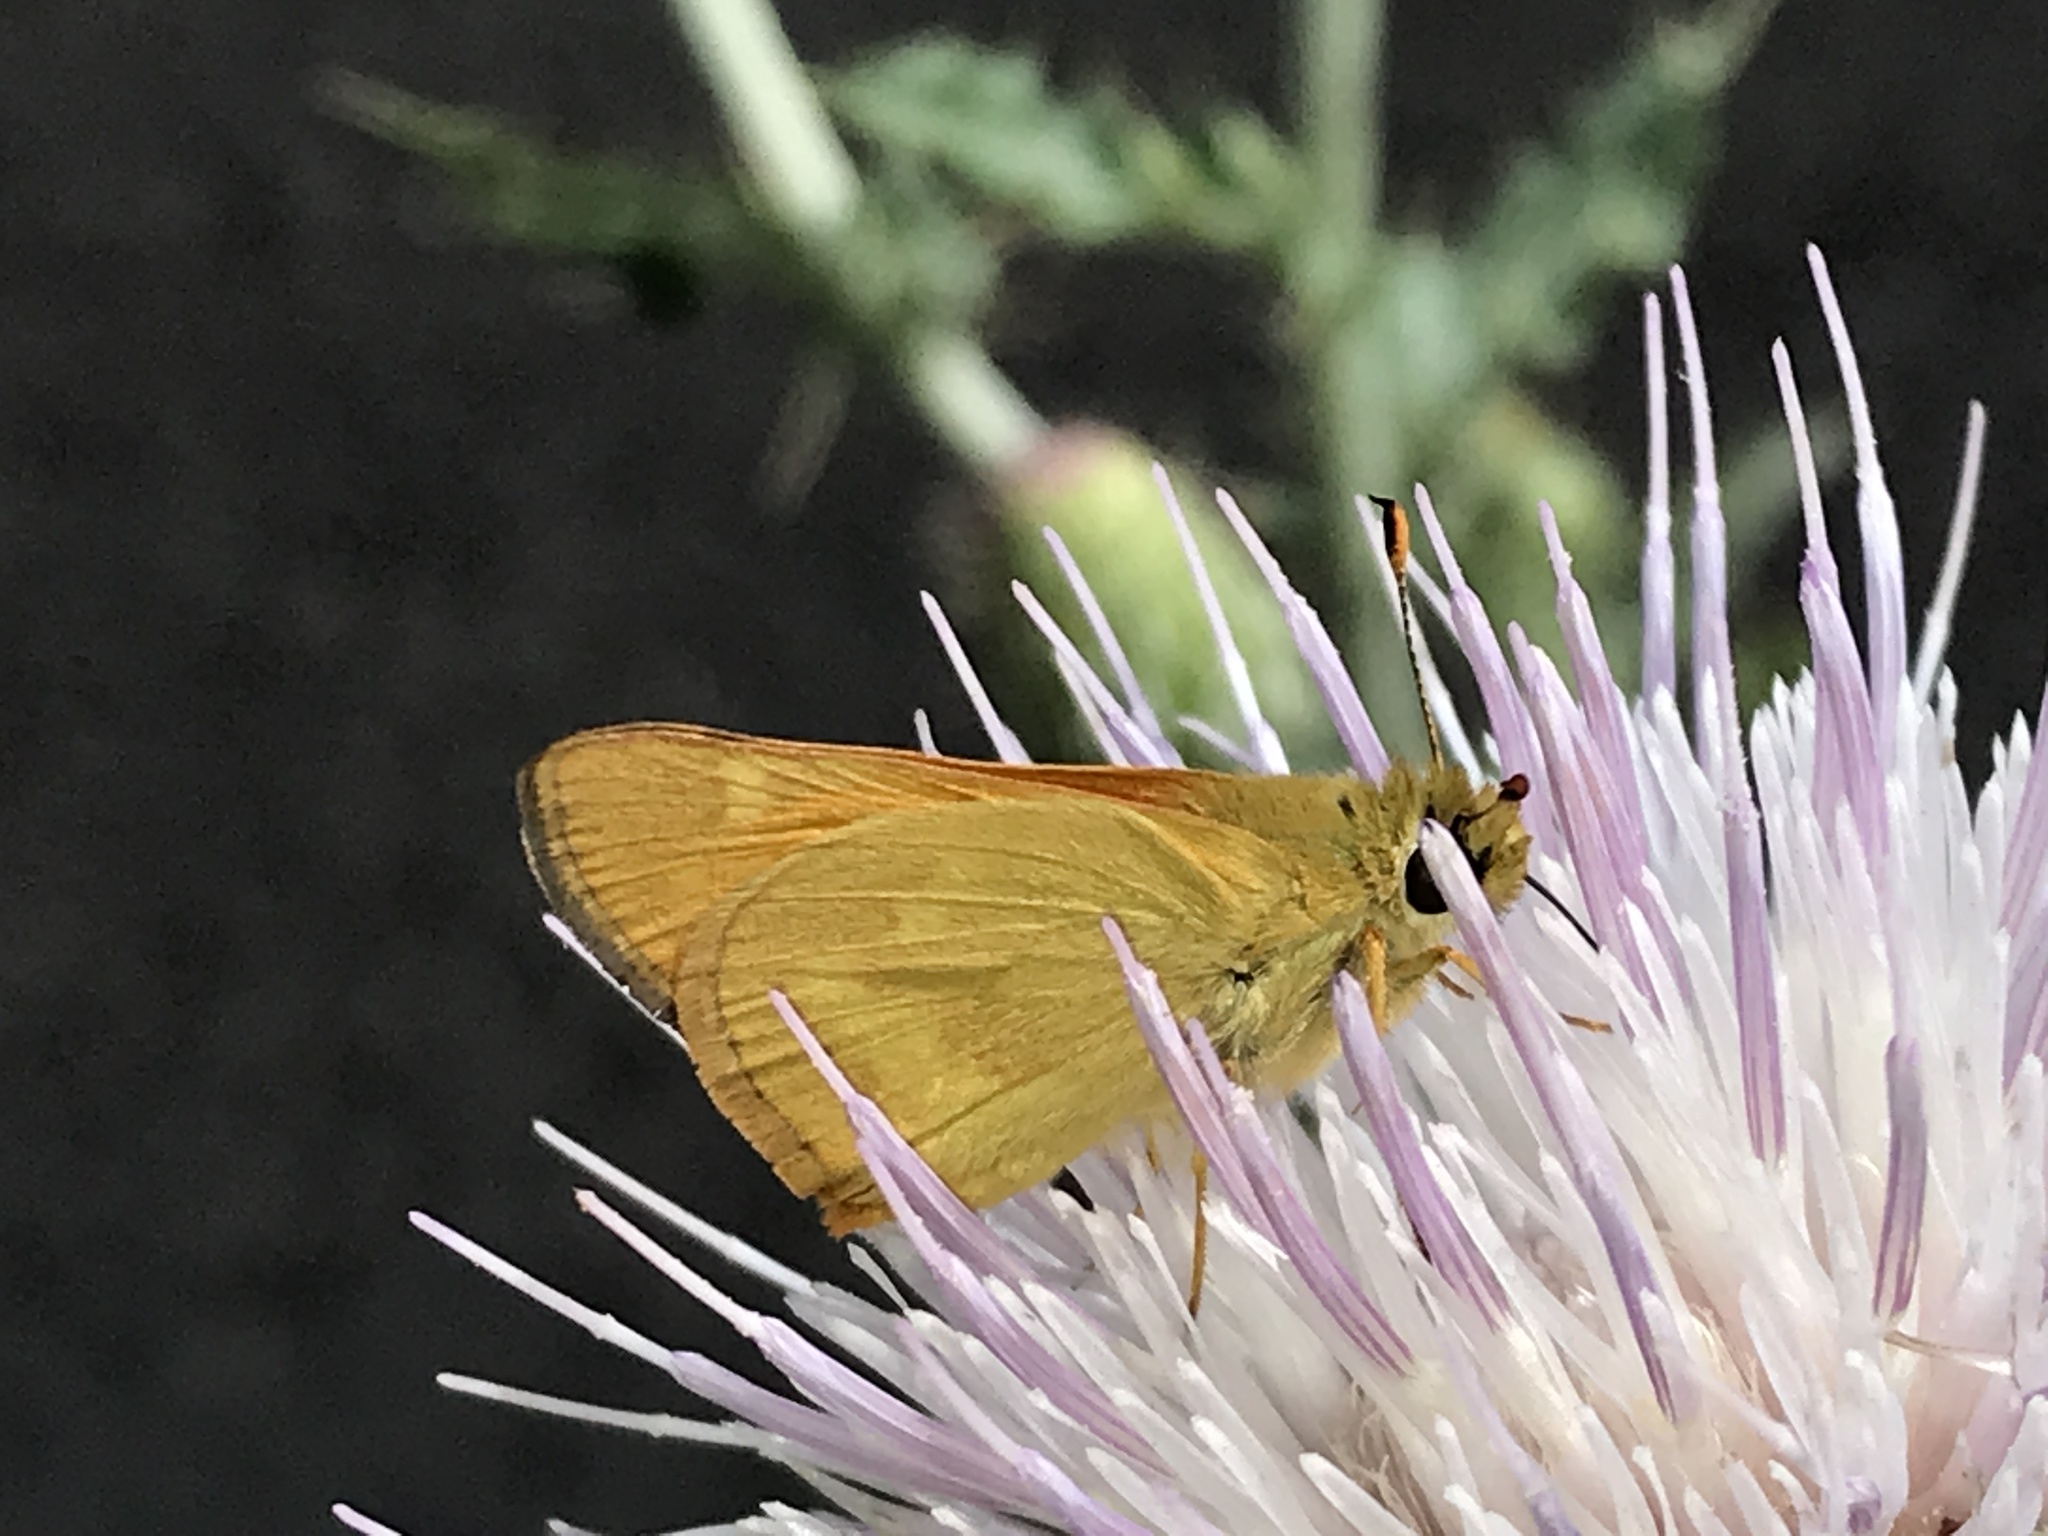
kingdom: Animalia
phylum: Arthropoda
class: Insecta
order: Lepidoptera
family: Hesperiidae
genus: Ochlodes
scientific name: Ochlodes sylvanoides
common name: Woodland skipper
